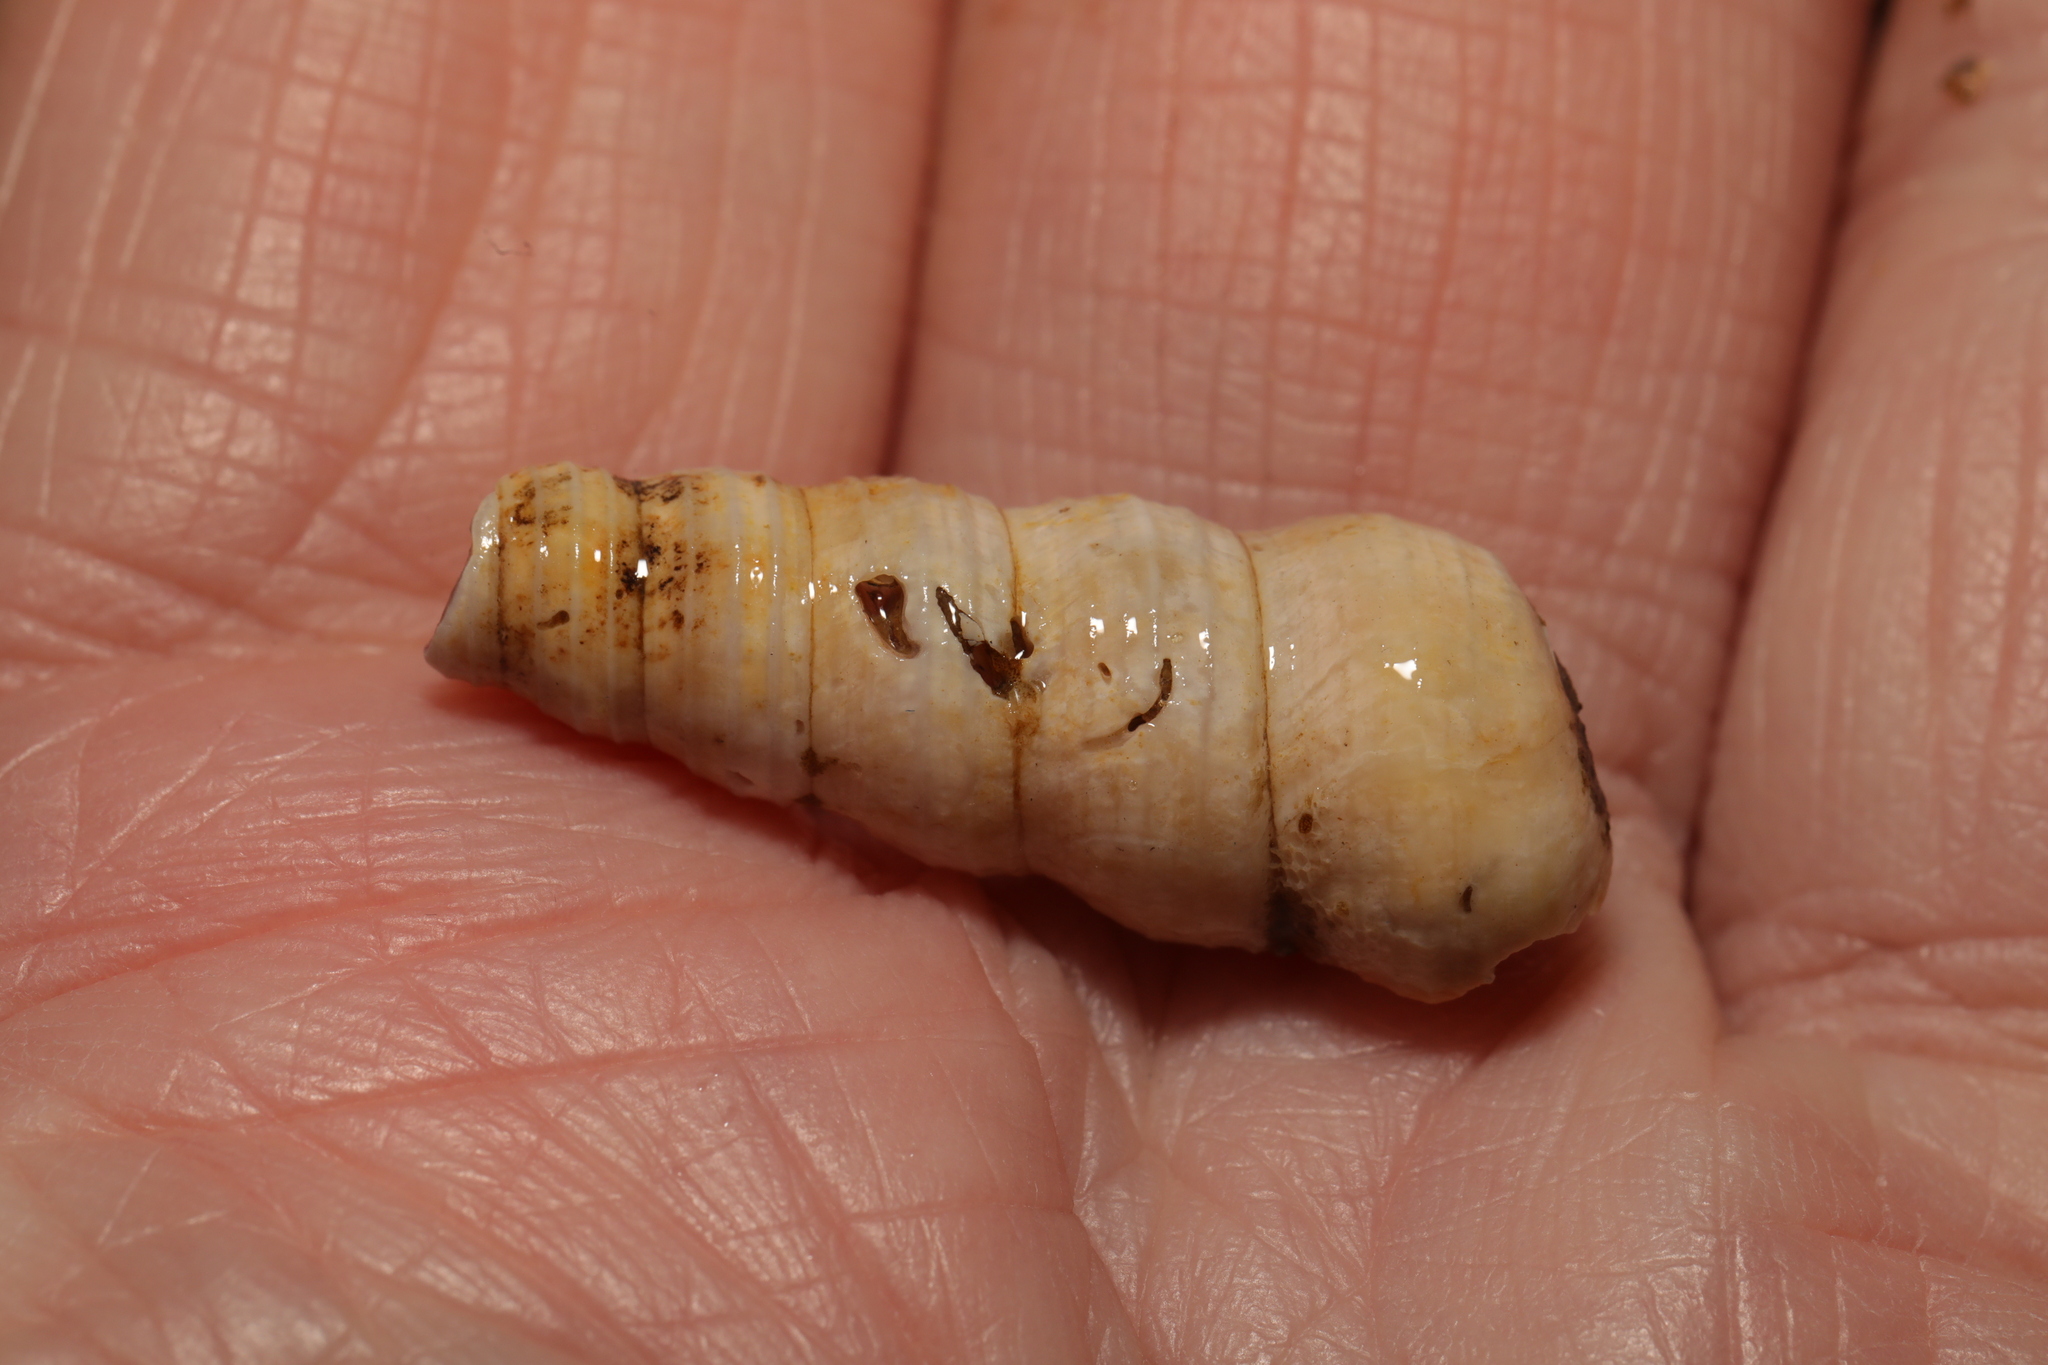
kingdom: Animalia
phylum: Mollusca
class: Gastropoda
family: Turritellidae
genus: Turritellinella
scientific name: Turritellinella tricarinata
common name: Auger shell
